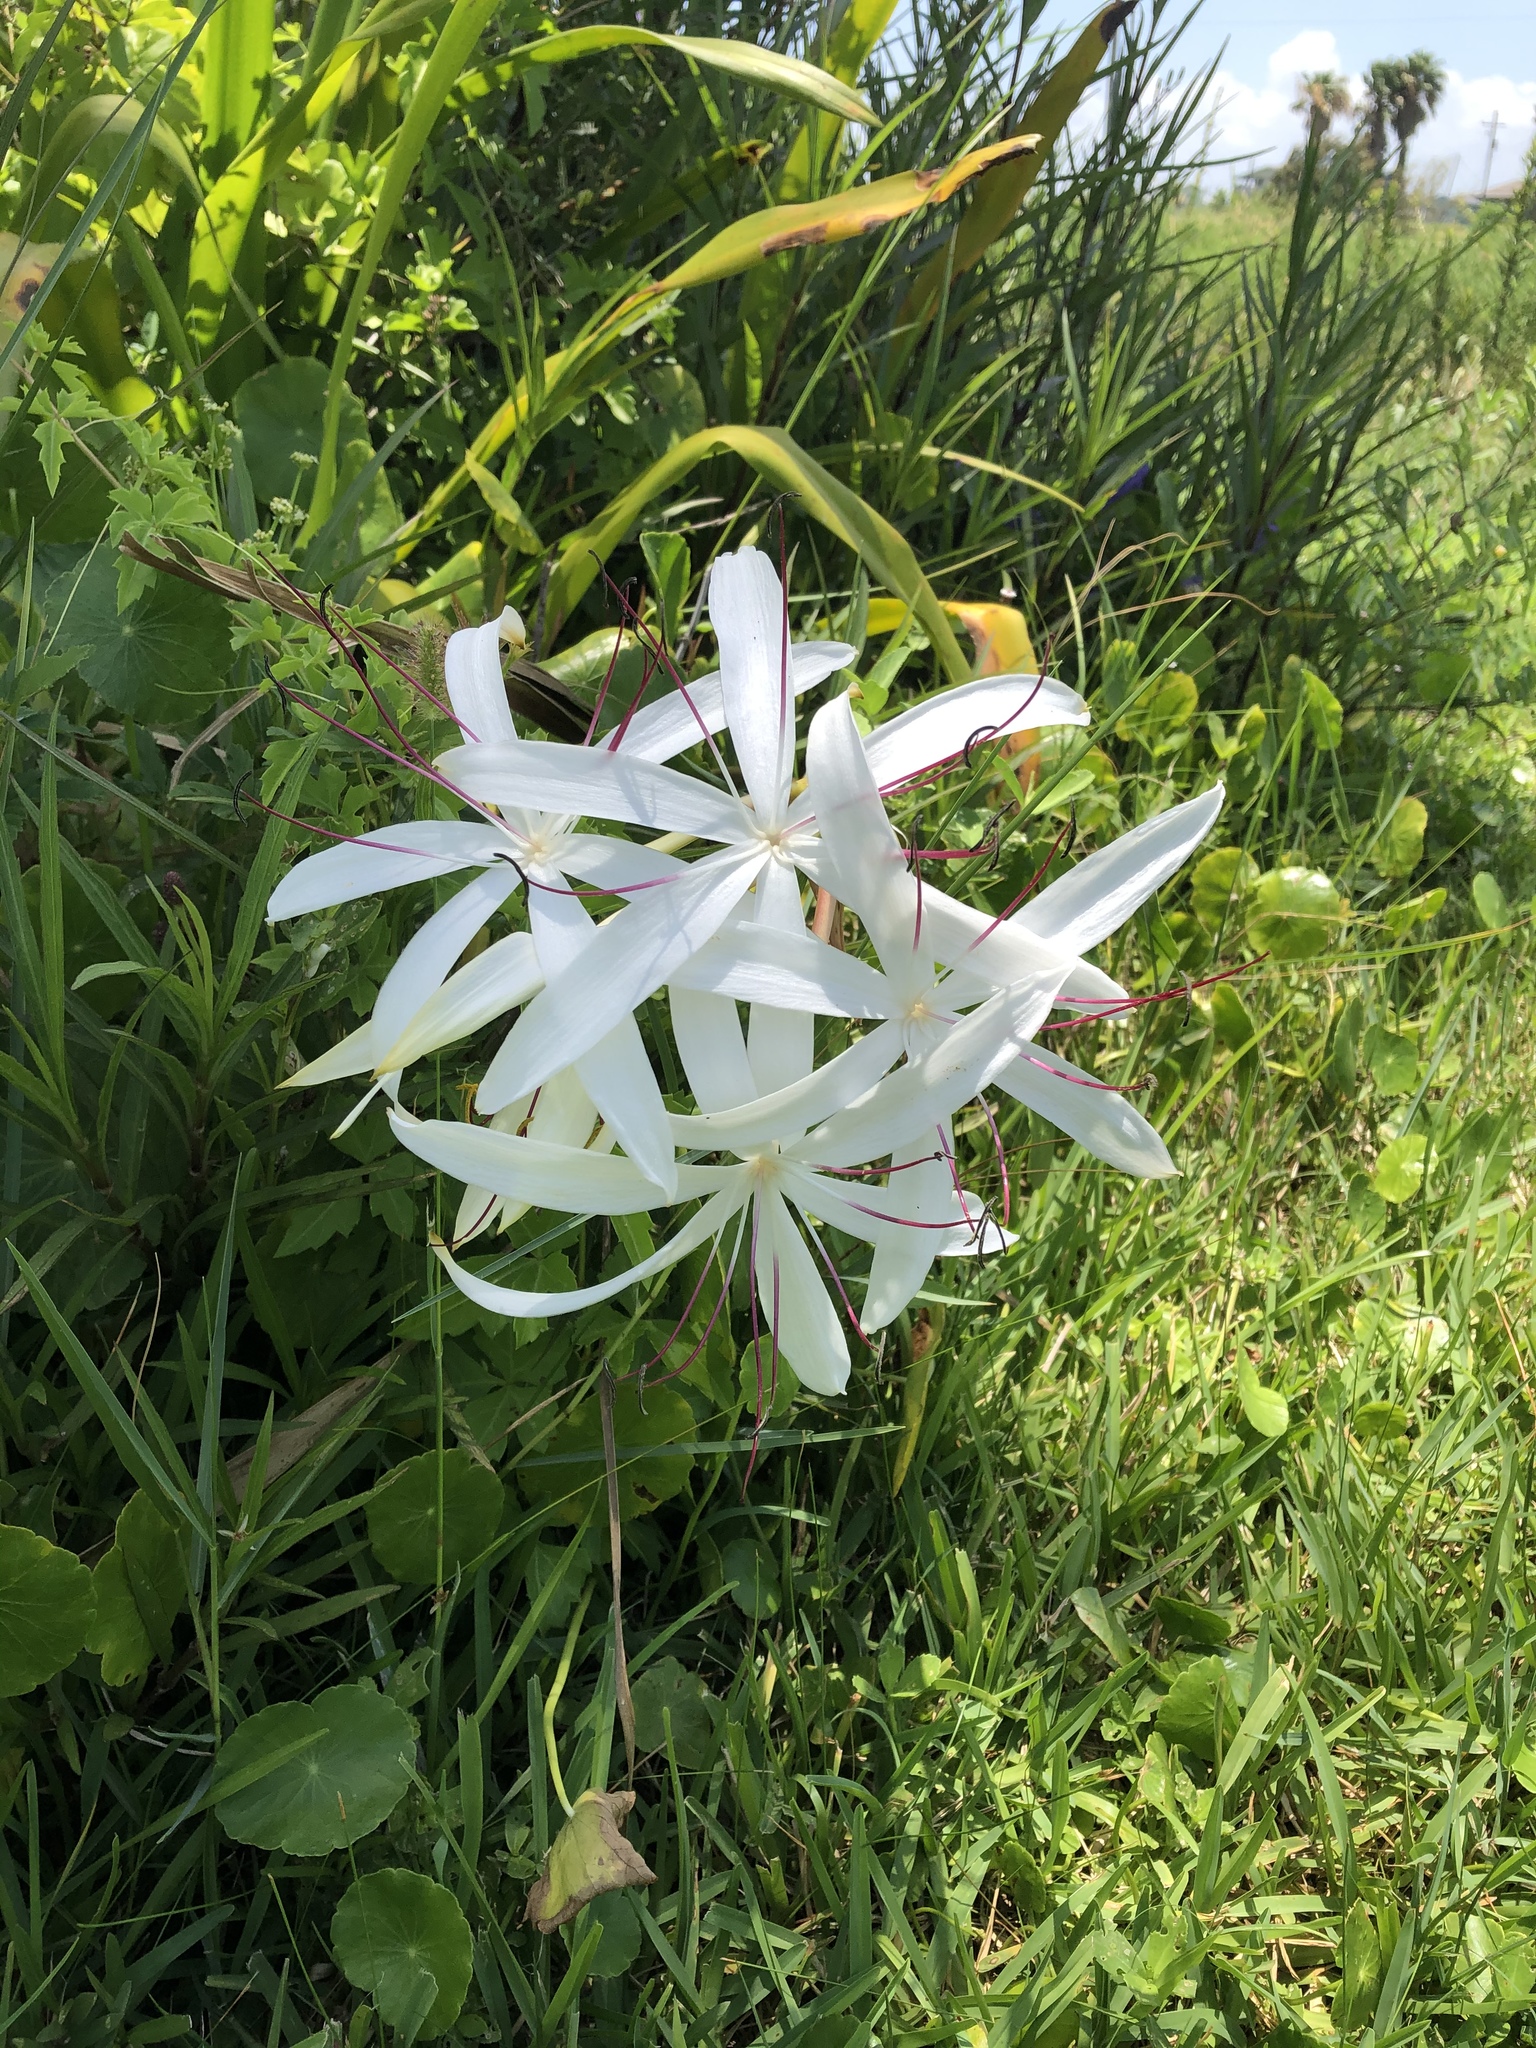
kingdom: Plantae
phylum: Tracheophyta
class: Liliopsida
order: Asparagales
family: Amaryllidaceae
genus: Crinum
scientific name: Crinum americanum
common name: Florida swamp-lily
